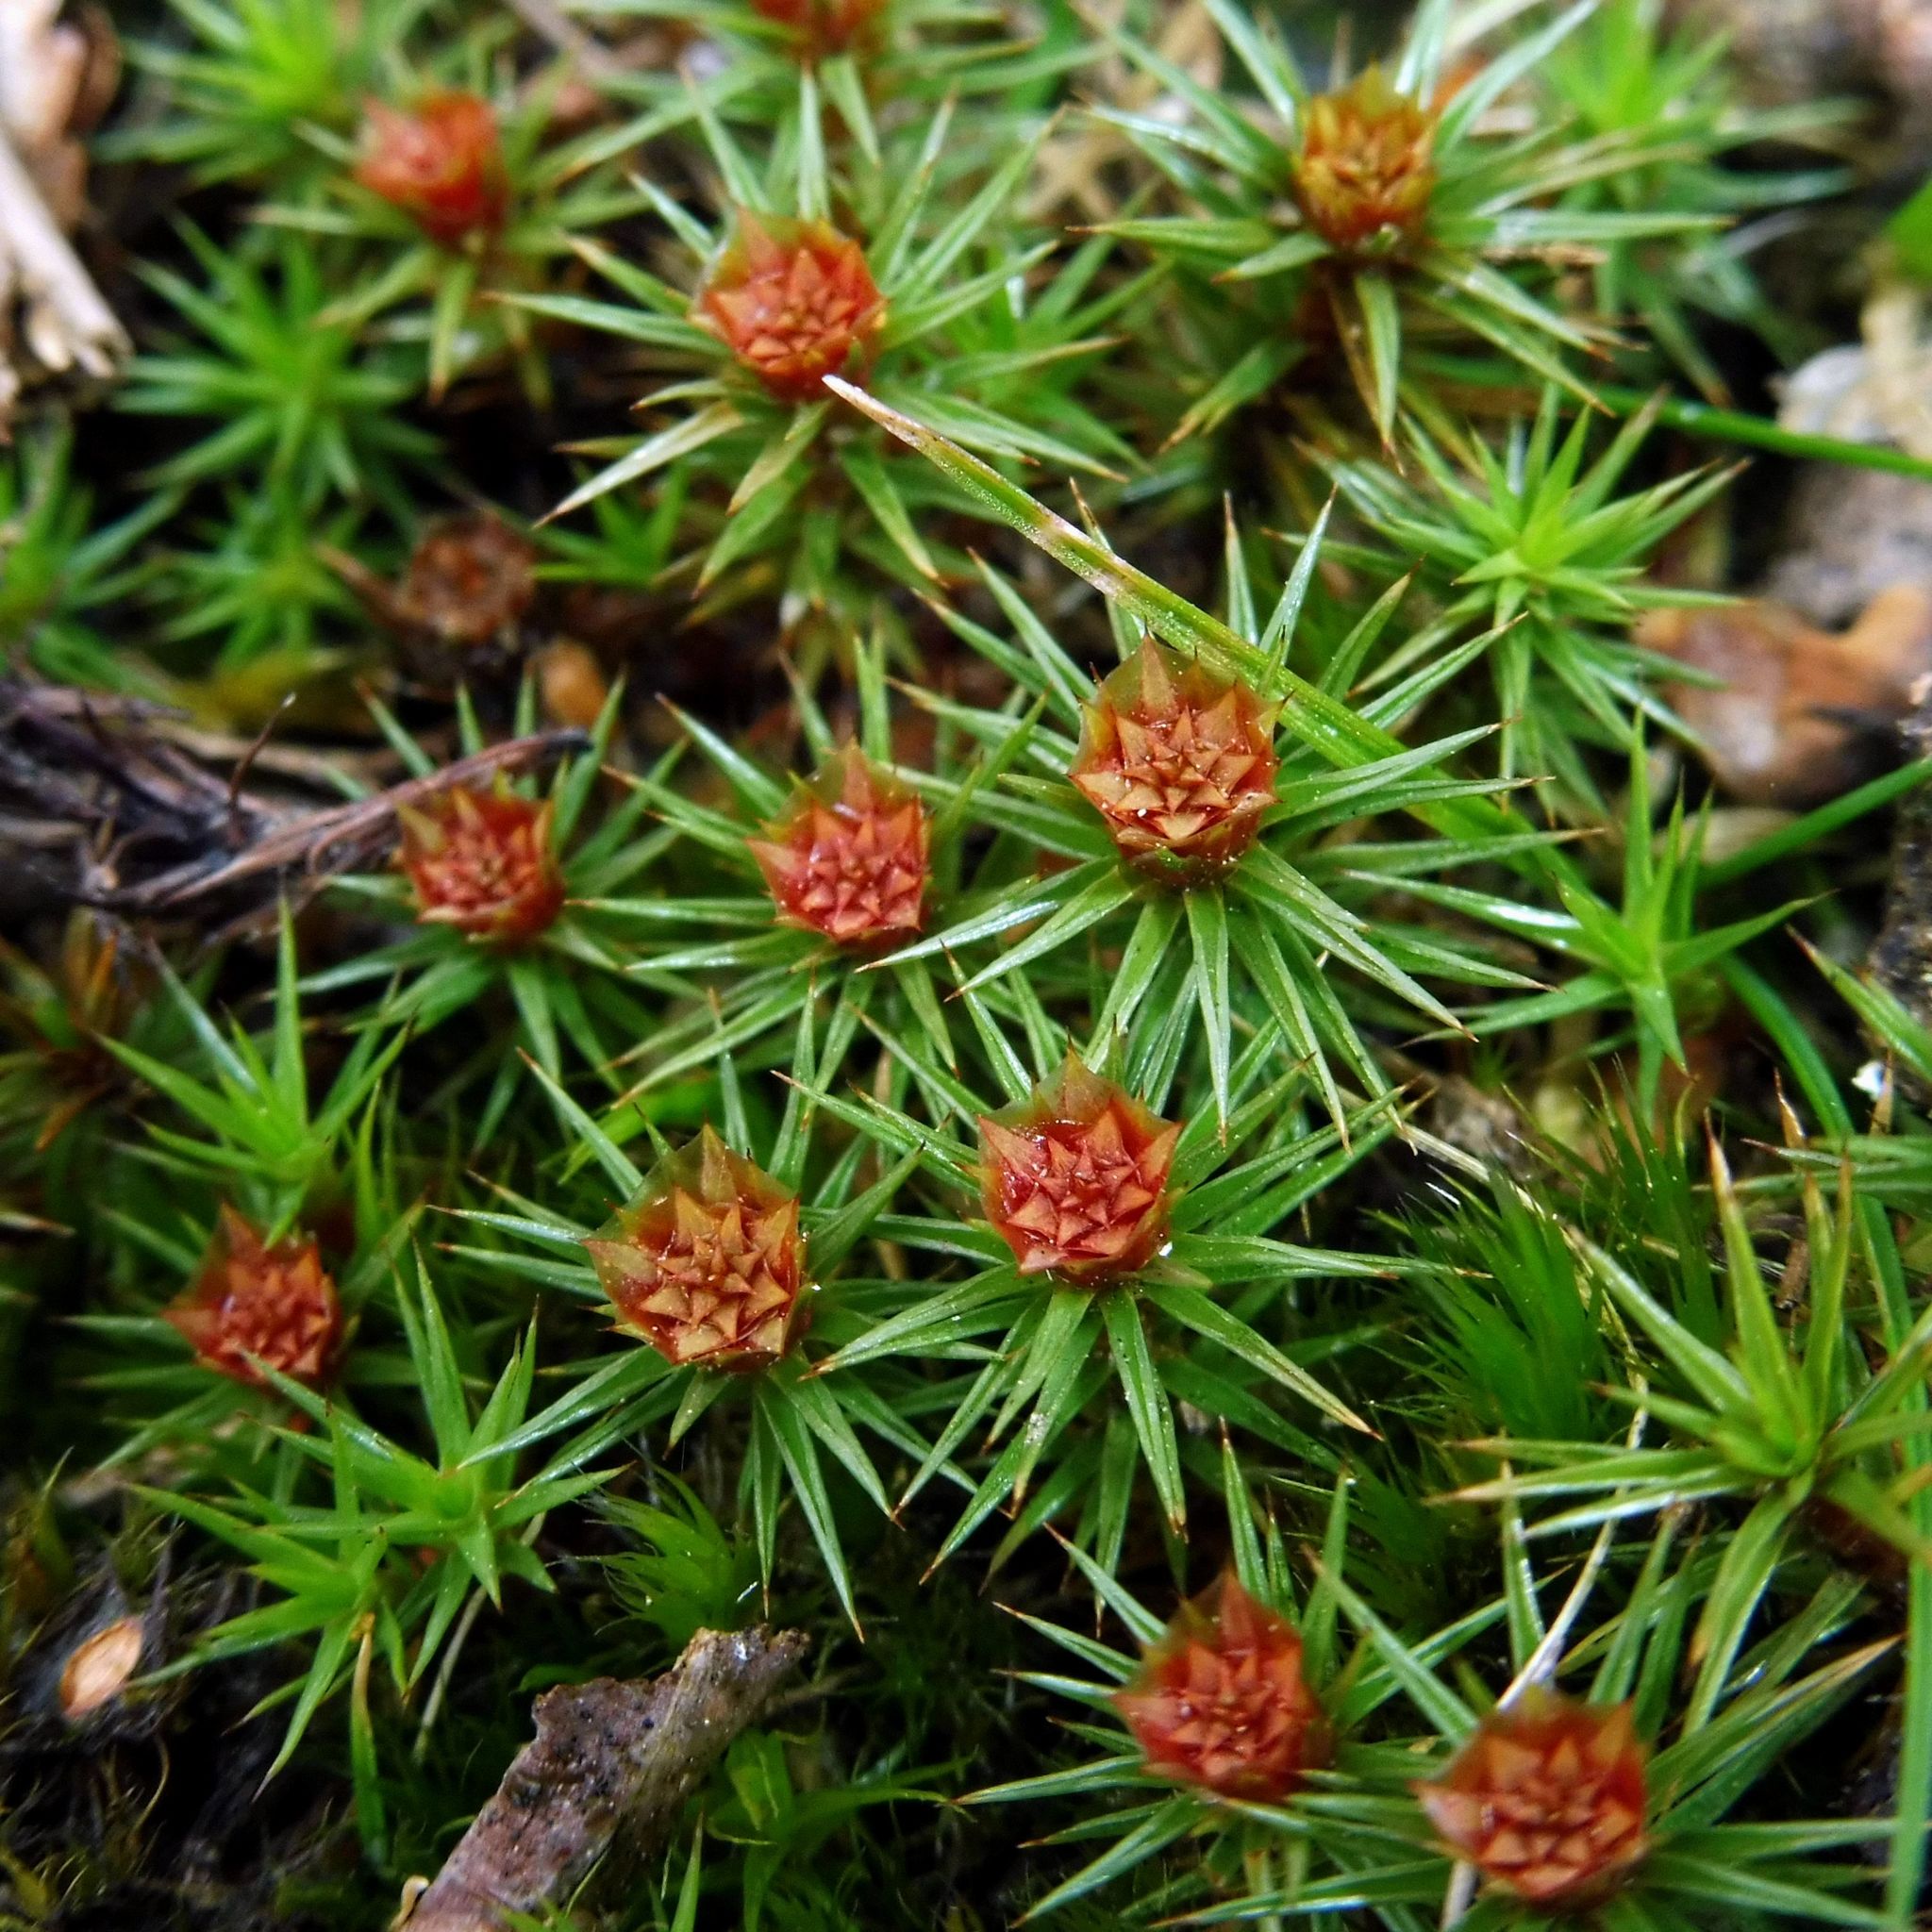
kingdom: Plantae
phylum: Bryophyta
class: Polytrichopsida
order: Polytrichales
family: Polytrichaceae
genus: Polytrichum
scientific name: Polytrichum juniperinum
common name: Juniper haircap moss
